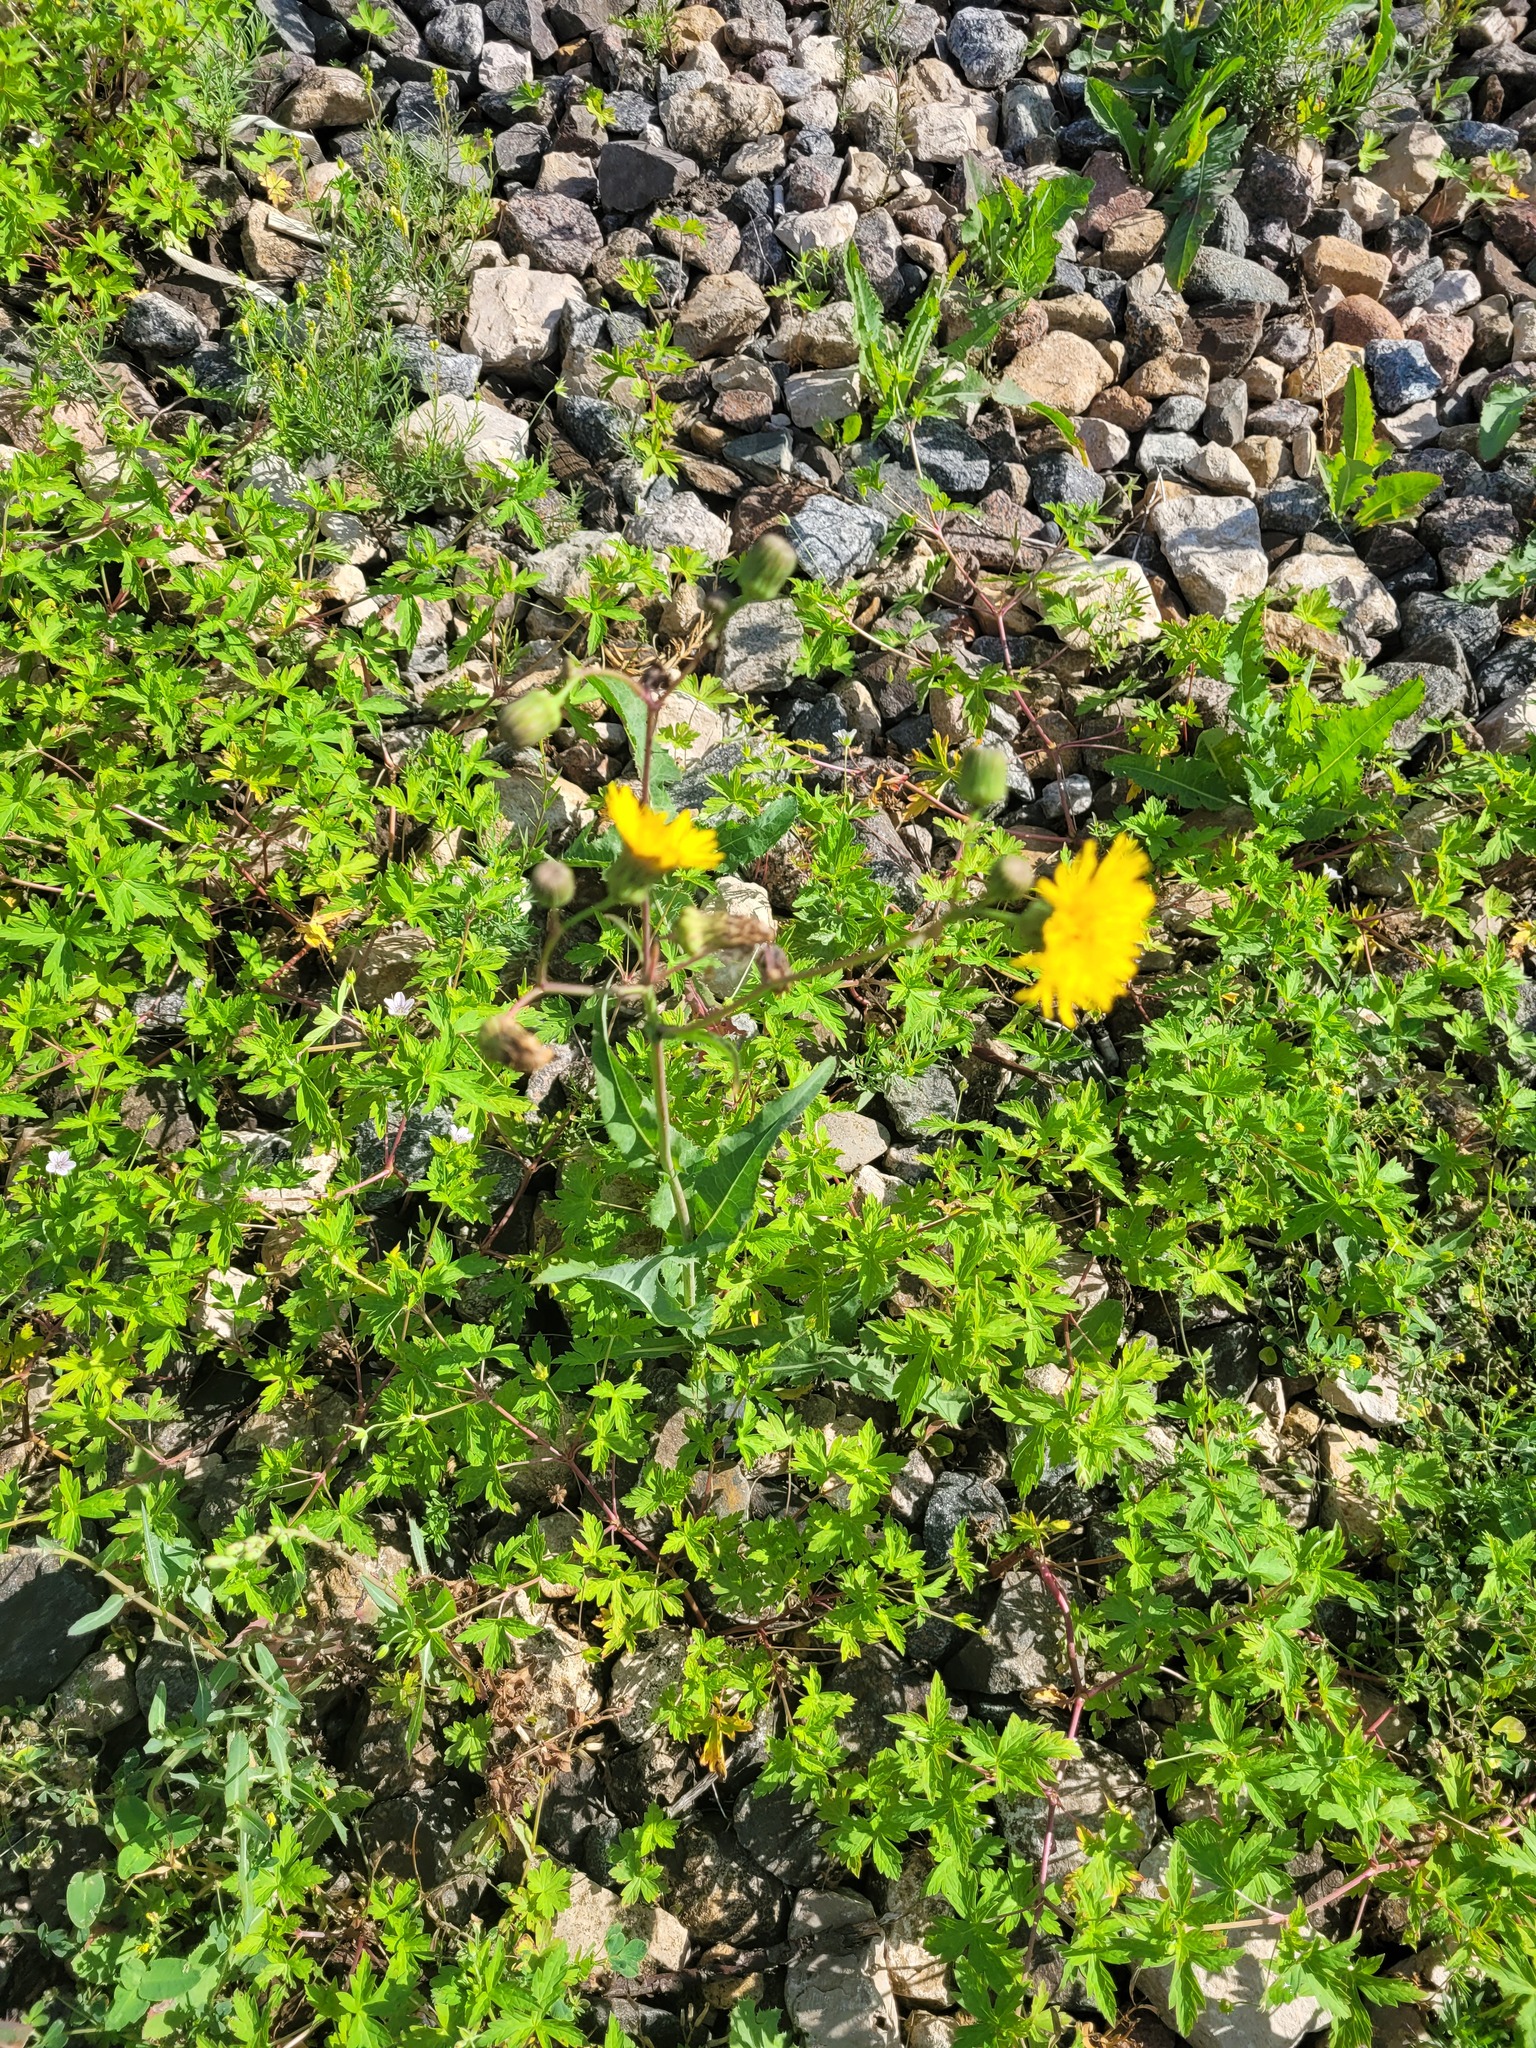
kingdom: Plantae
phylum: Tracheophyta
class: Magnoliopsida
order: Asterales
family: Asteraceae
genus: Sonchus
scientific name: Sonchus arvensis
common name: Perennial sow-thistle
